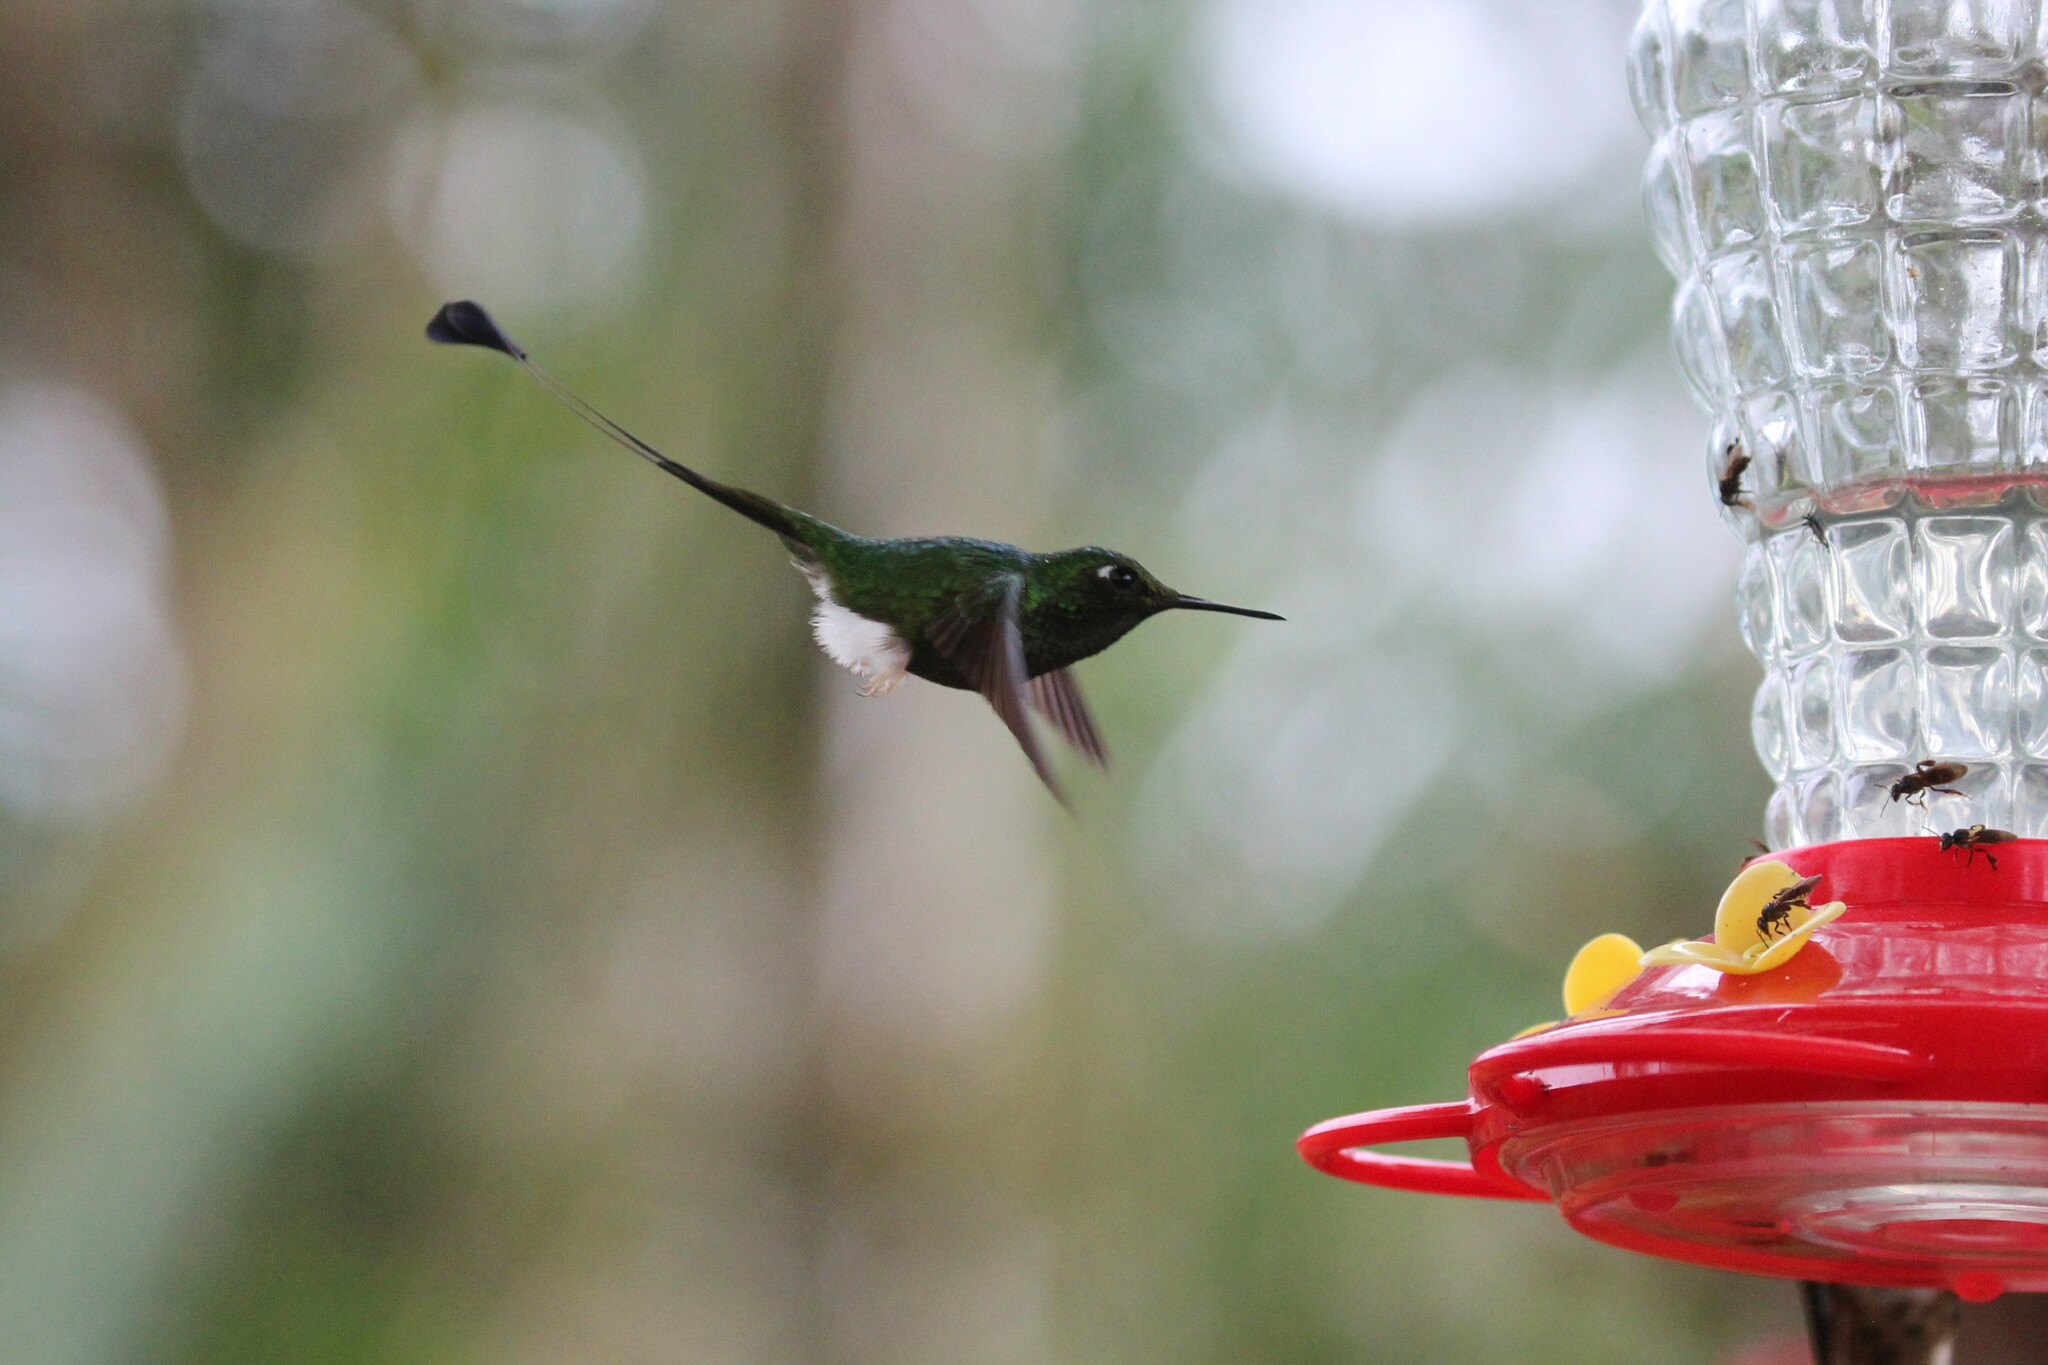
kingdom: Animalia
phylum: Chordata
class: Aves
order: Apodiformes
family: Trochilidae
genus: Ocreatus
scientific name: Ocreatus underwoodii
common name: Booted racket-tail
